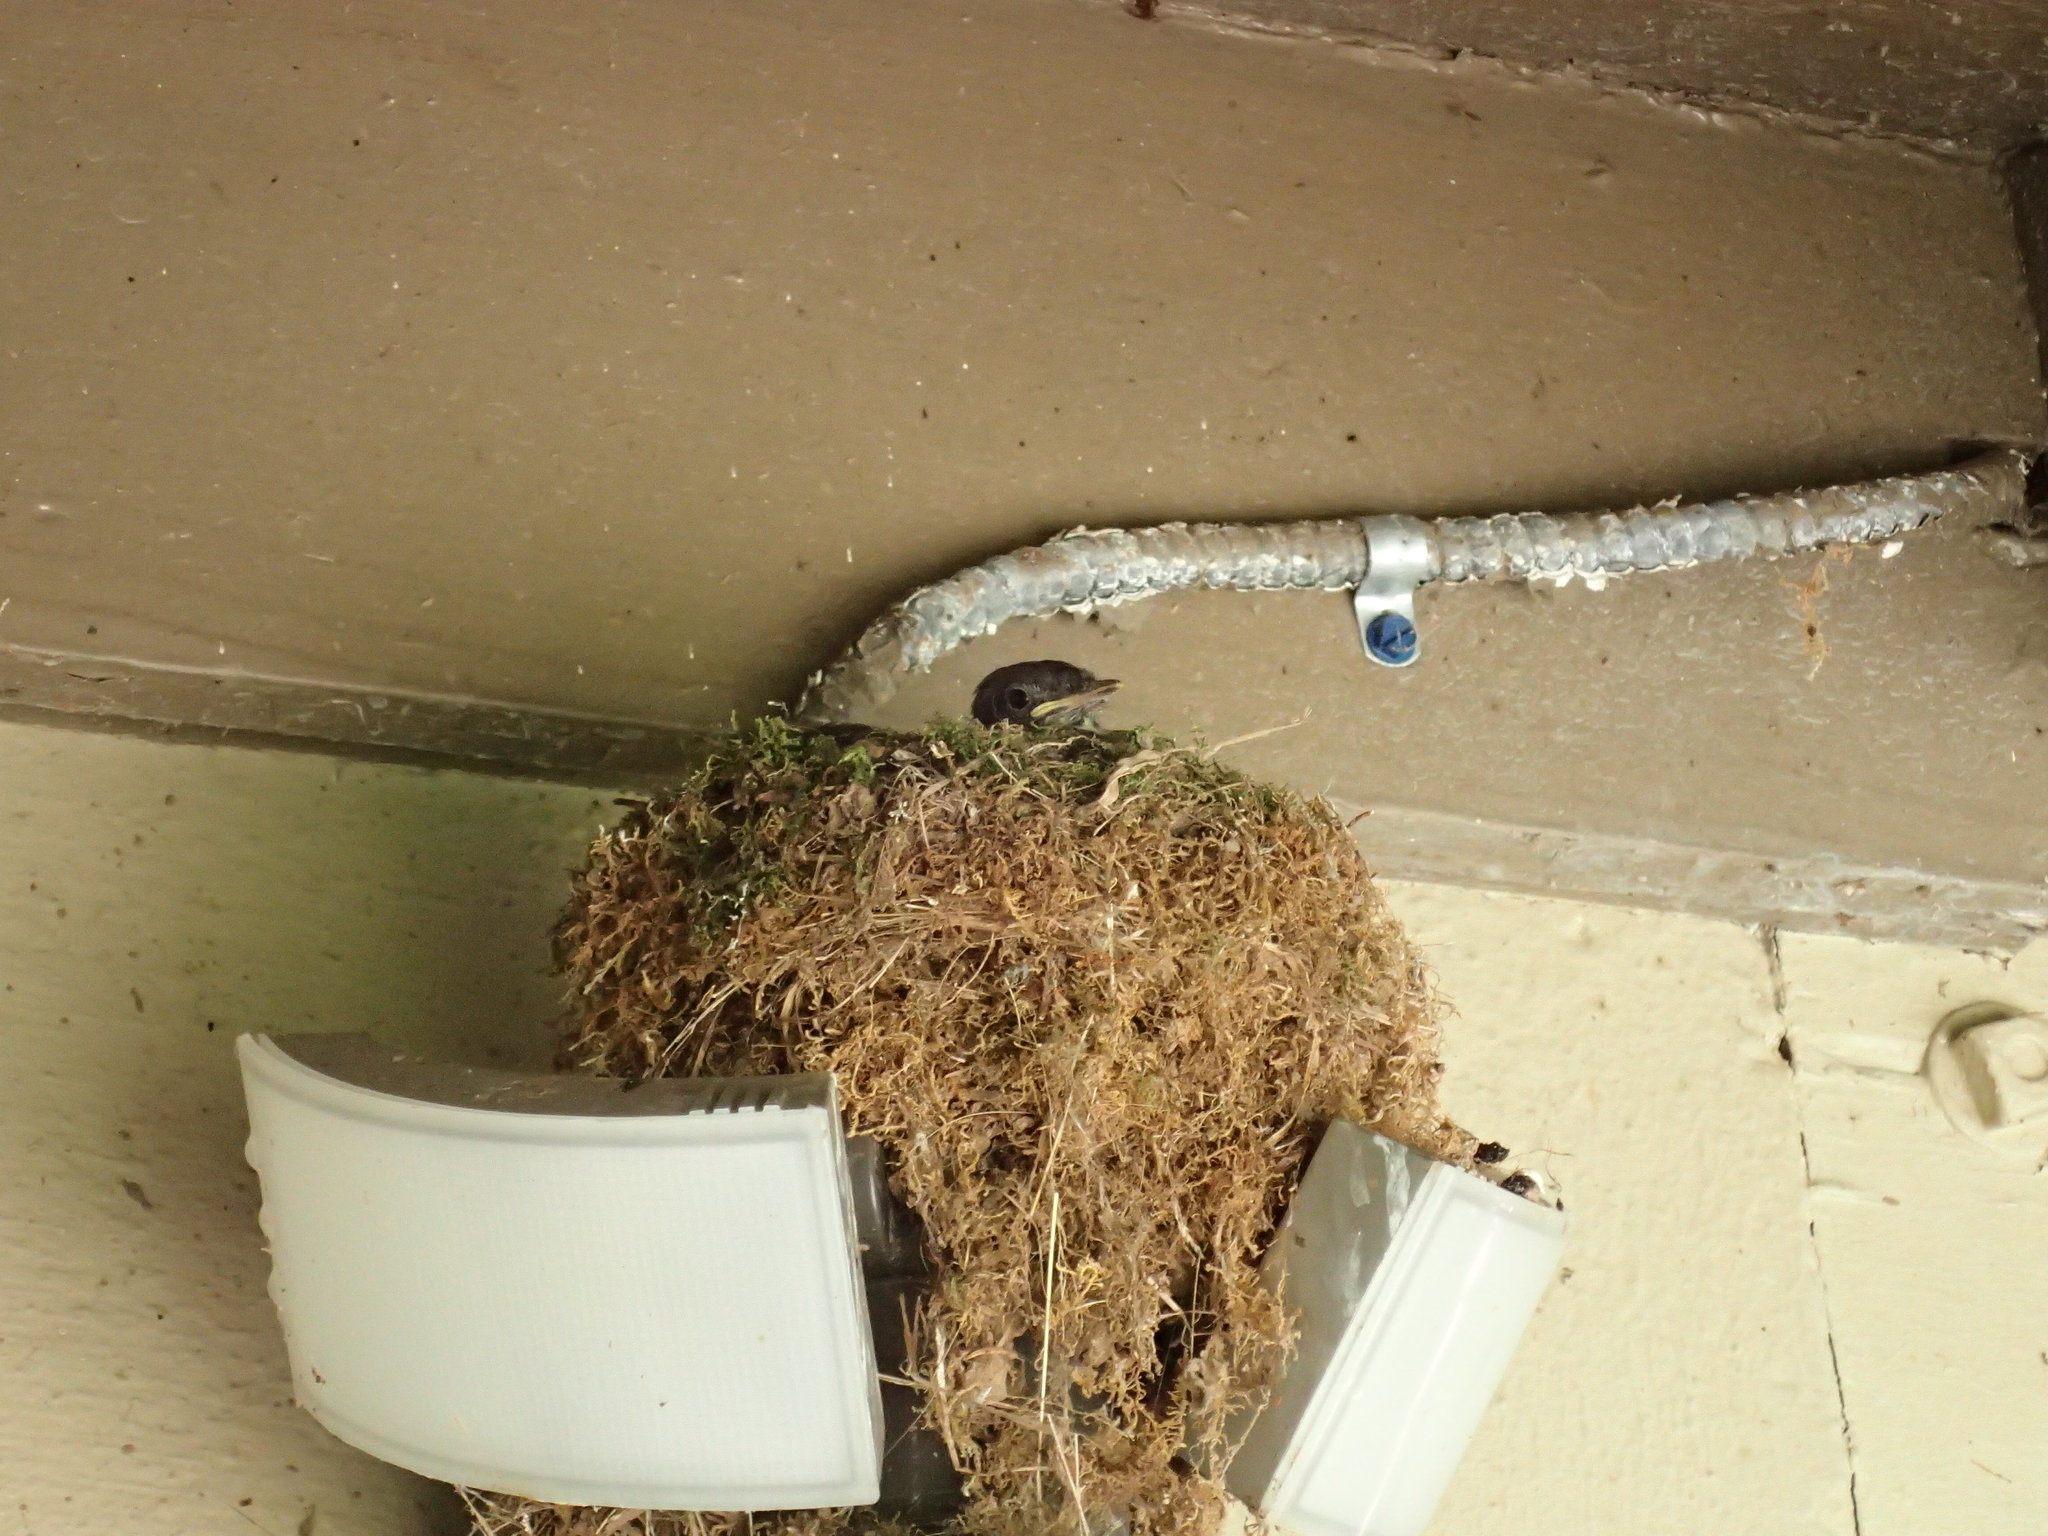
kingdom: Animalia
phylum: Chordata
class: Aves
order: Passeriformes
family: Tyrannidae
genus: Sayornis
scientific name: Sayornis phoebe
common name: Eastern phoebe
